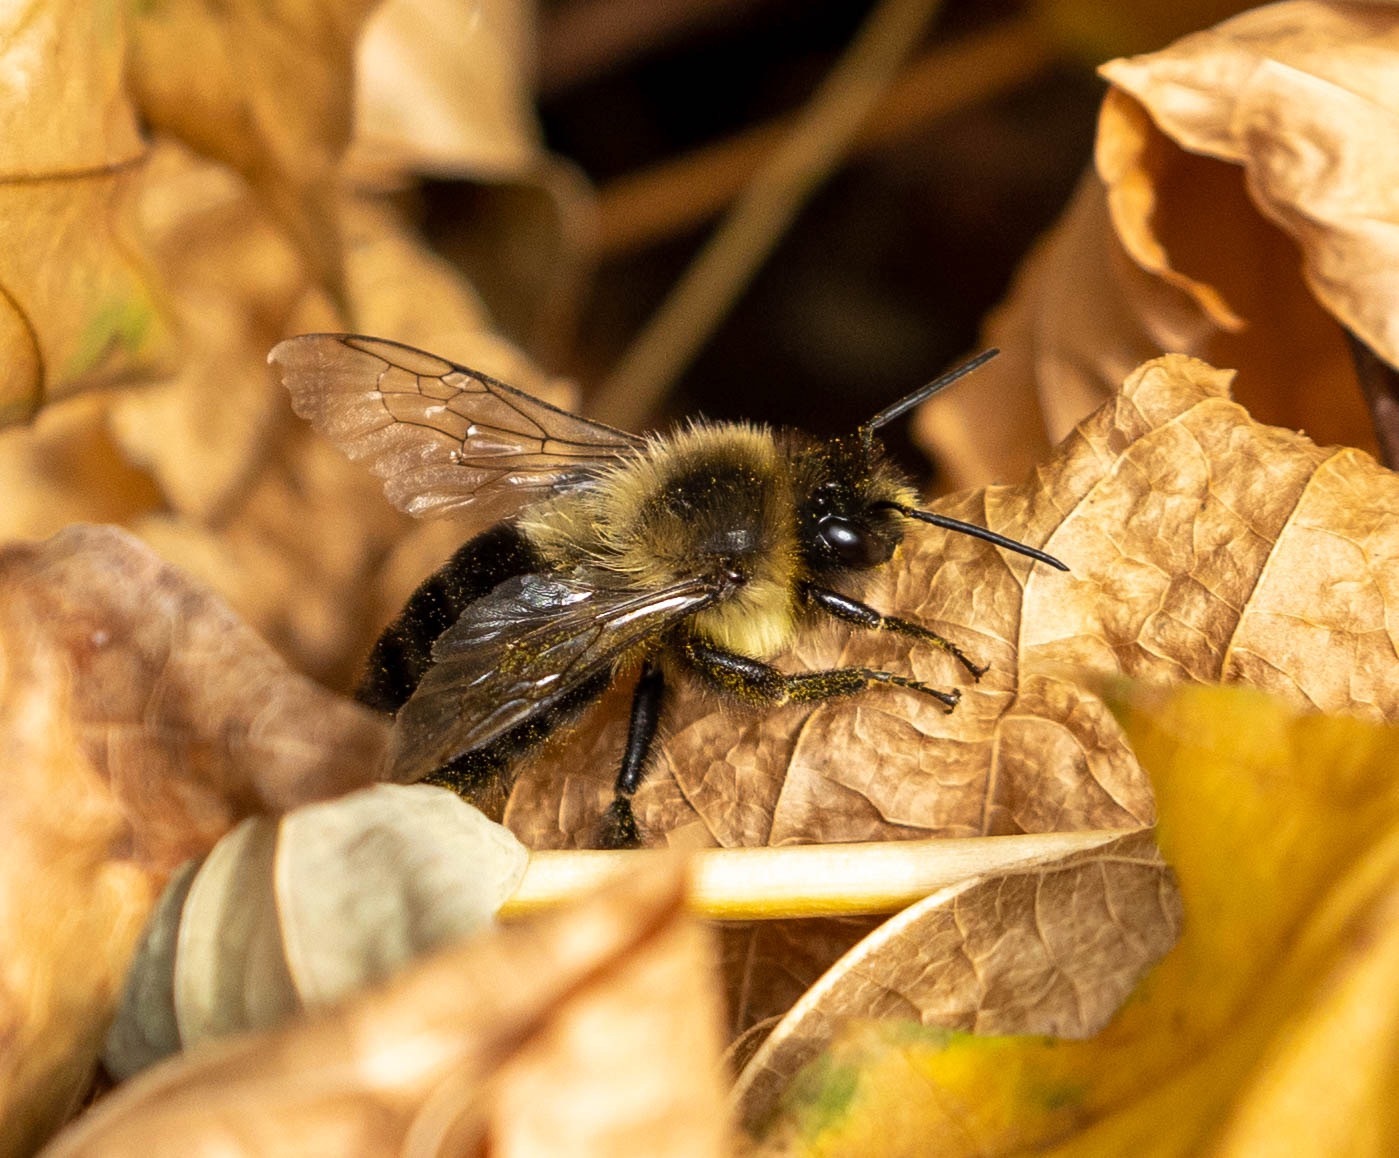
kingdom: Animalia
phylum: Arthropoda
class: Insecta
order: Hymenoptera
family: Apidae
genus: Bombus
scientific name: Bombus impatiens
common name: Common eastern bumble bee
